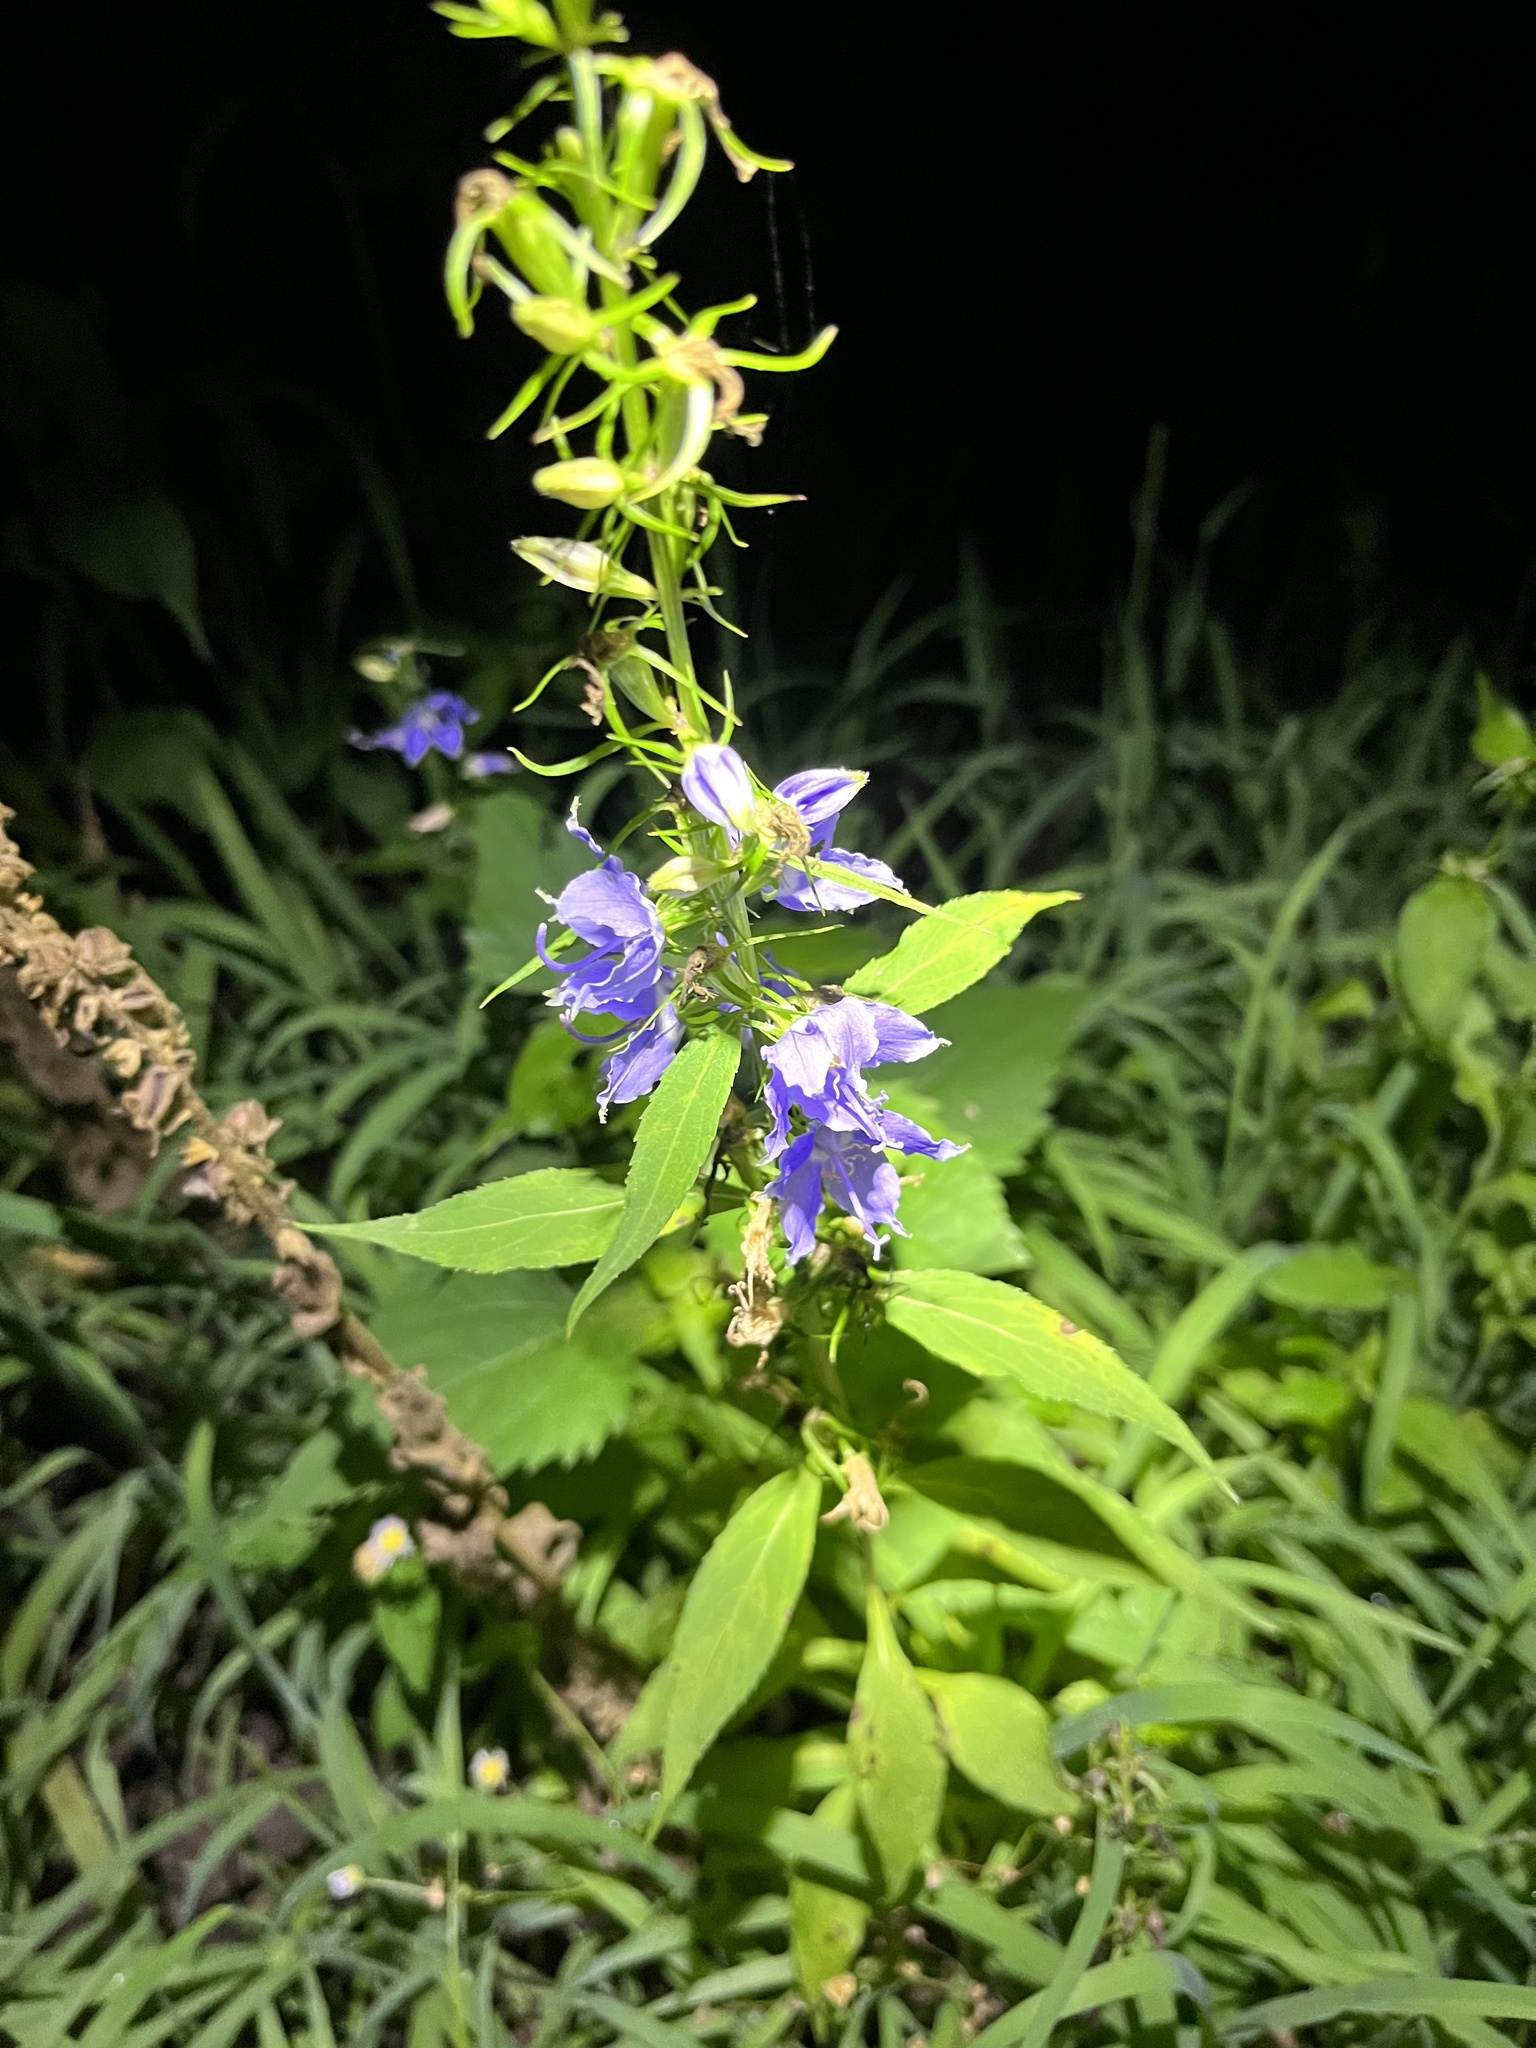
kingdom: Plantae
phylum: Tracheophyta
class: Magnoliopsida
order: Asterales
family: Campanulaceae
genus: Campanulastrum
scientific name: Campanulastrum americanum
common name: American bellflower
